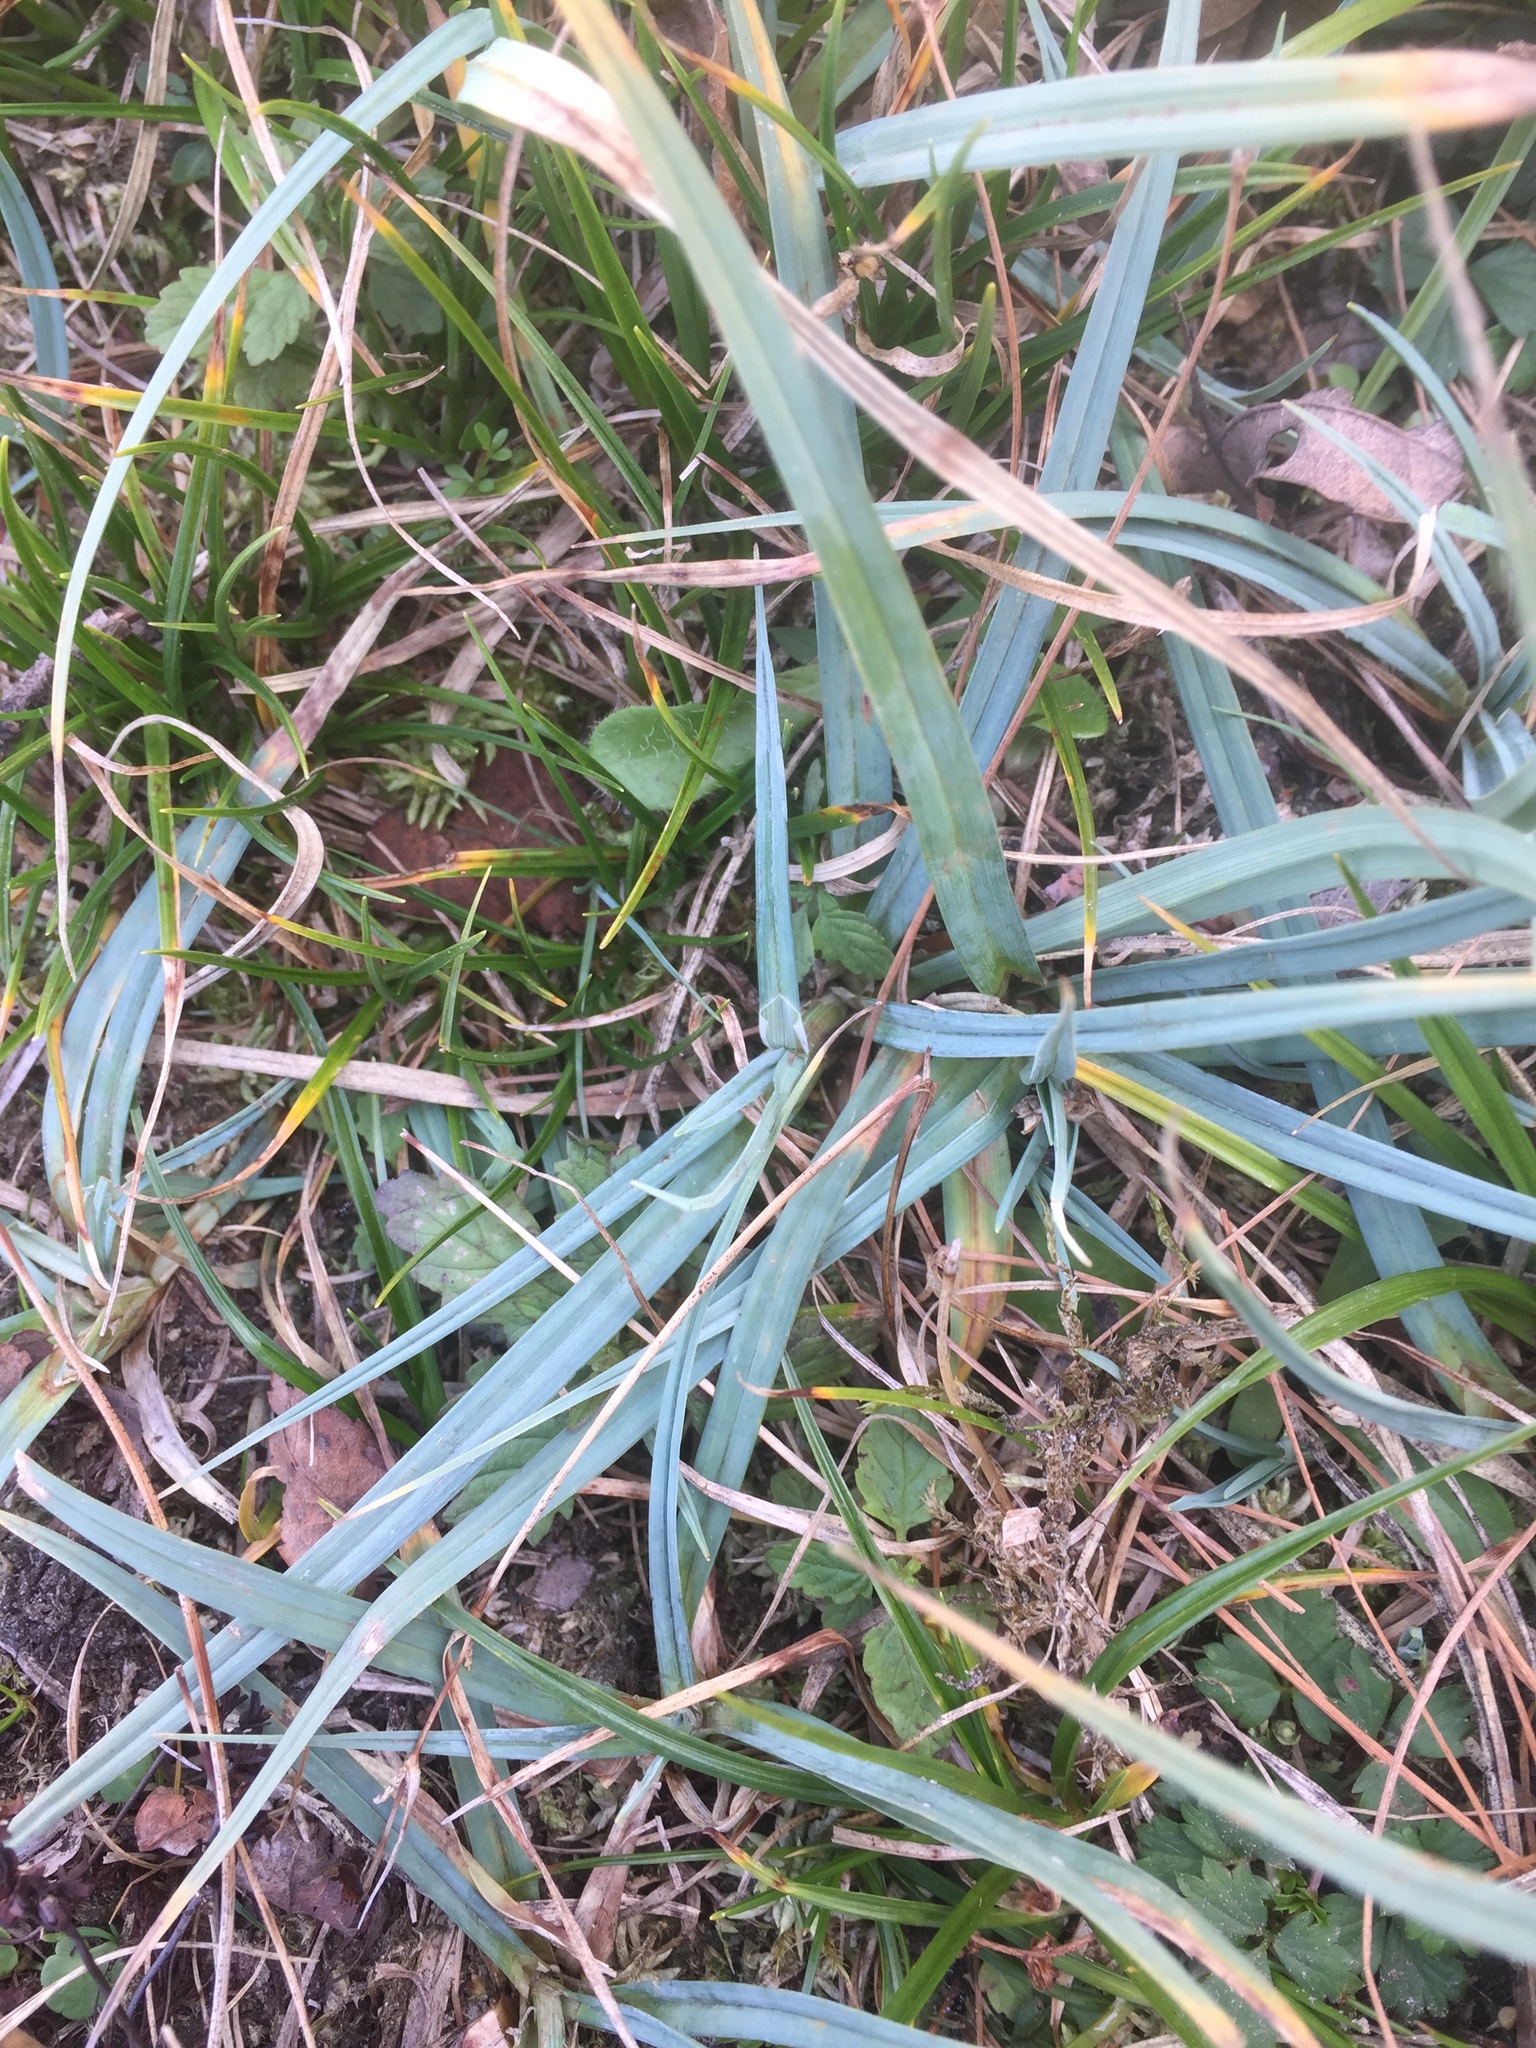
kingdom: Plantae
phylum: Tracheophyta
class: Liliopsida
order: Poales
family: Cyperaceae
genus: Carex
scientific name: Carex panicea
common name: Carnation sedge
